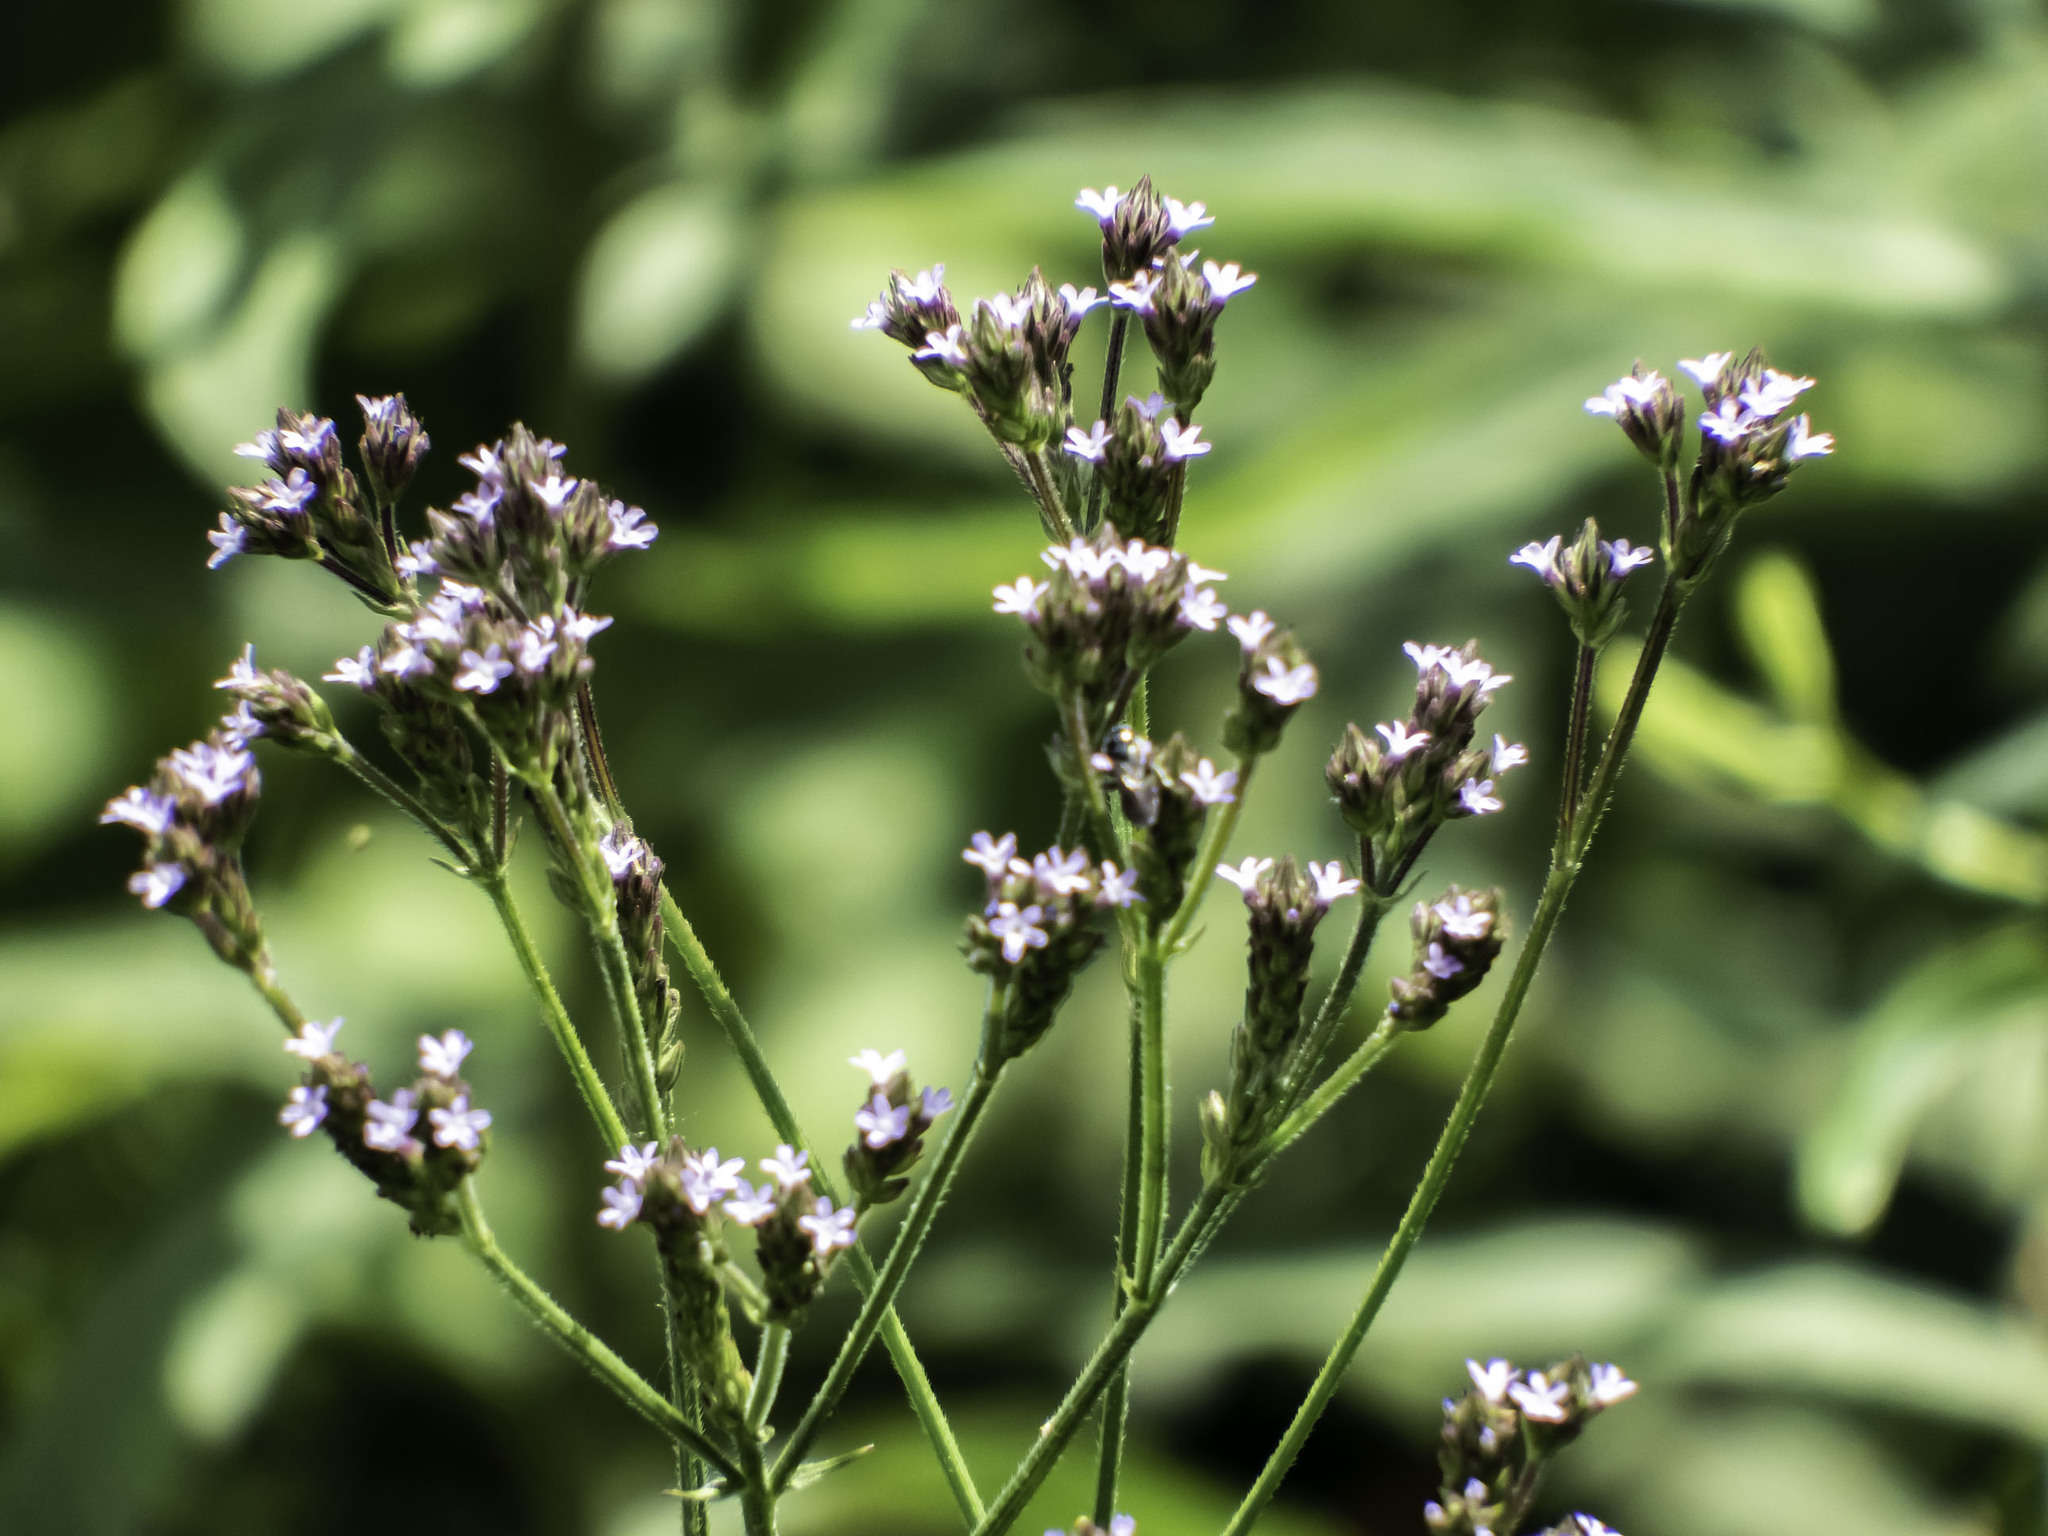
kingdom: Plantae
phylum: Tracheophyta
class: Magnoliopsida
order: Lamiales
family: Verbenaceae
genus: Verbena
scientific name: Verbena brasiliensis
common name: Brazilian vervain
